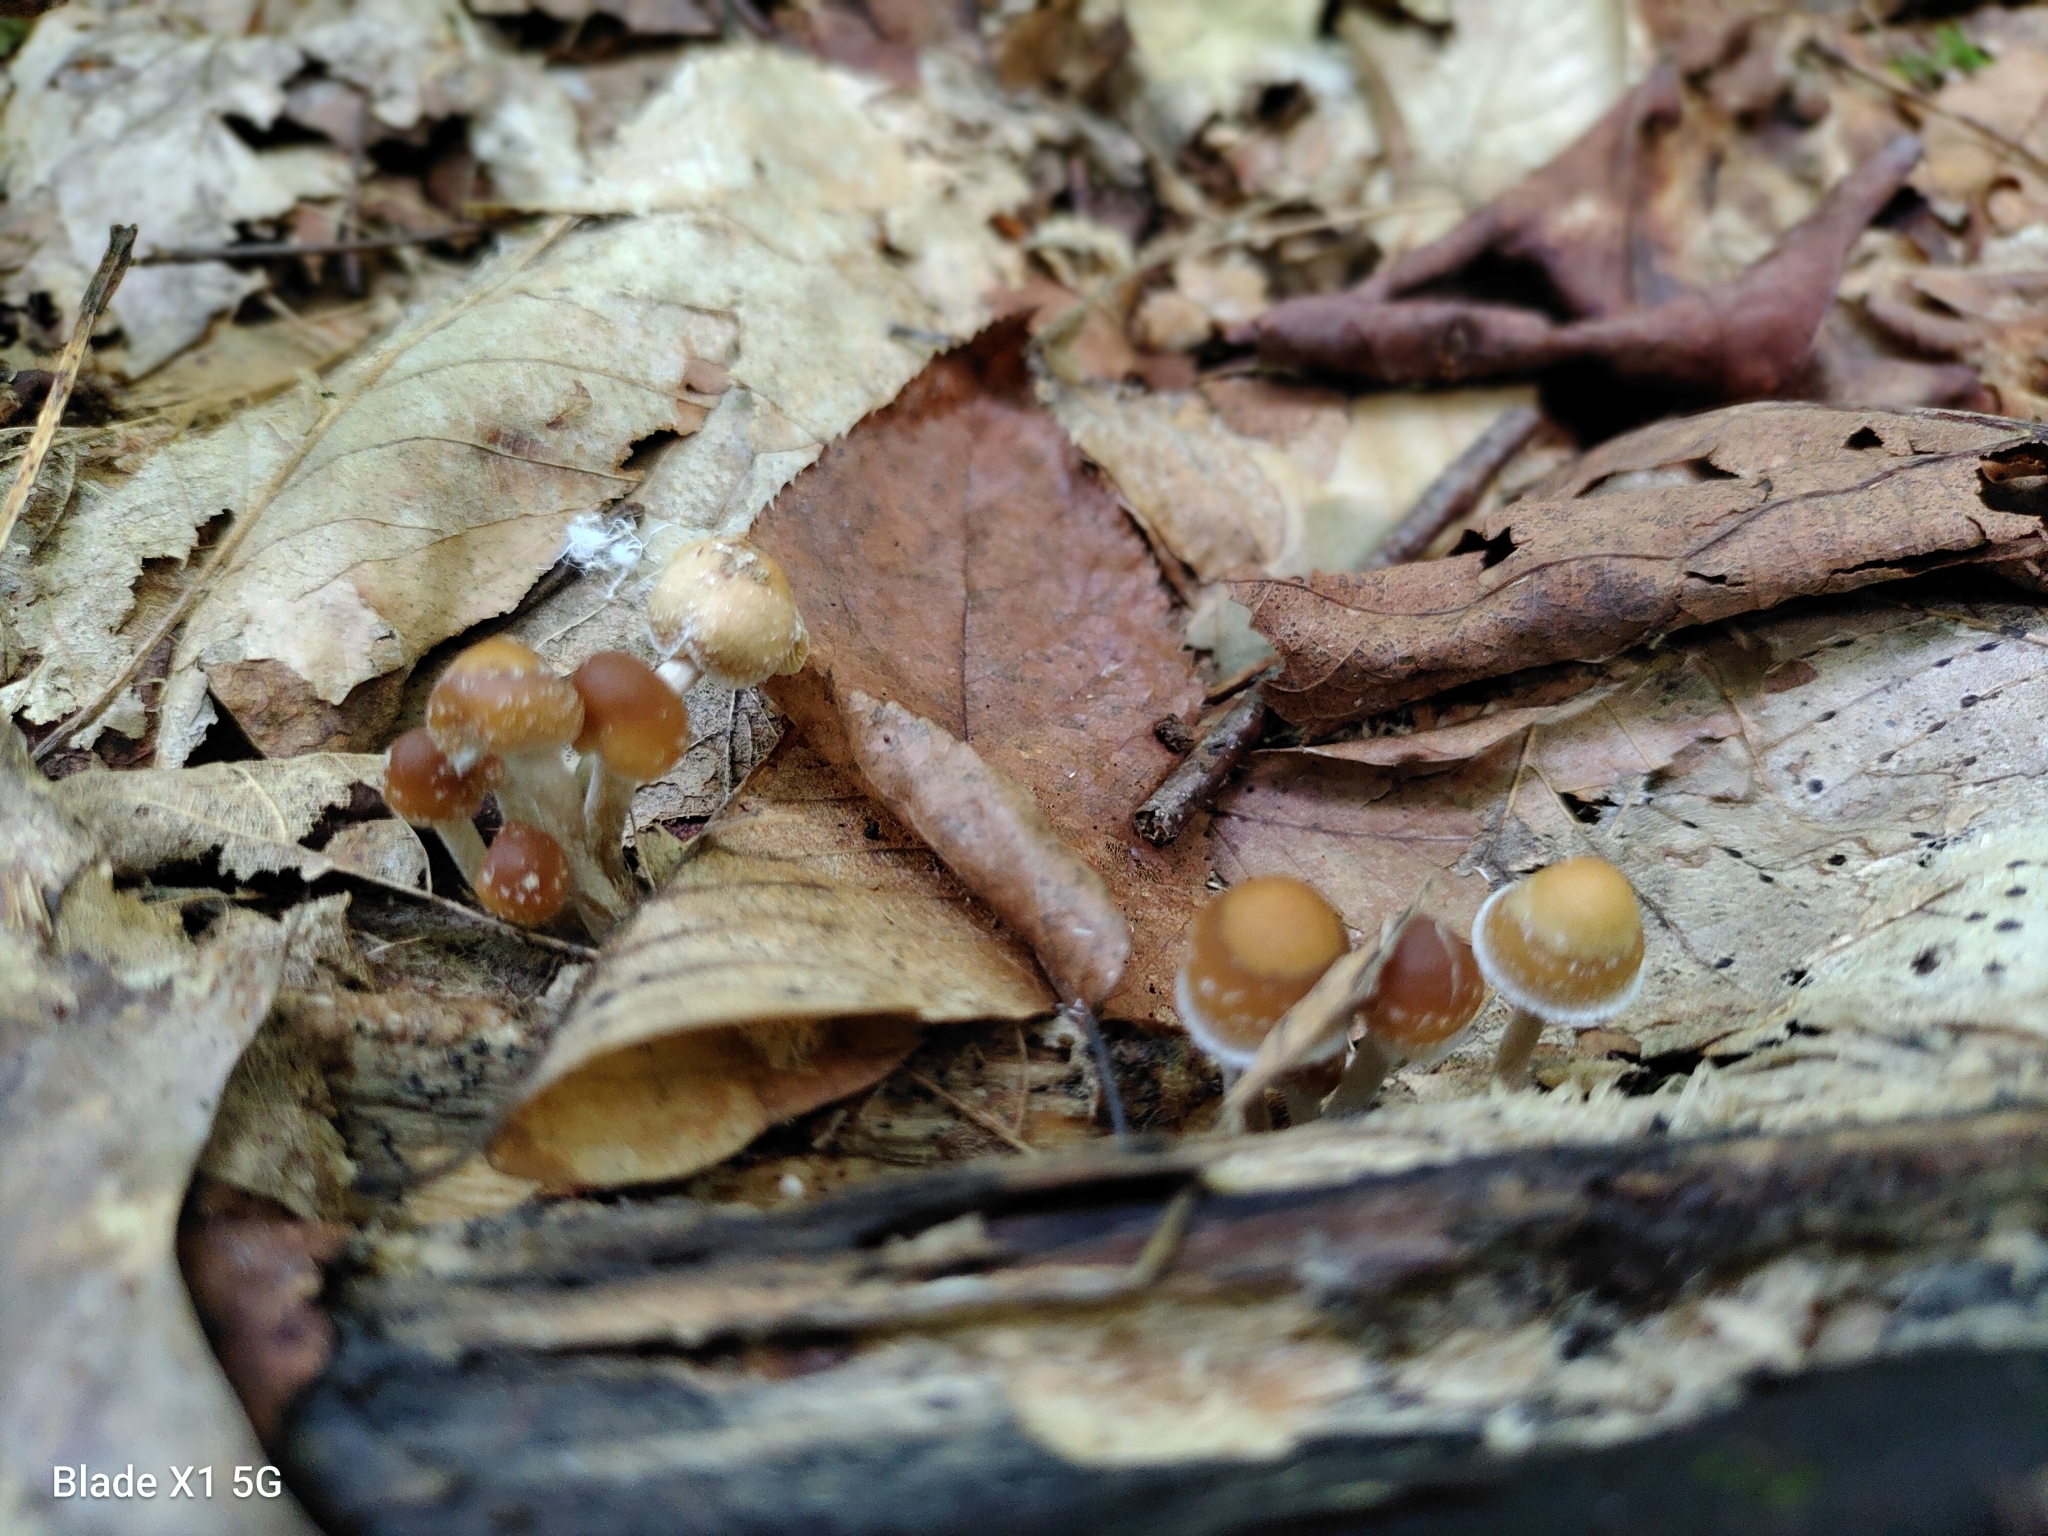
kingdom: Fungi
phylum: Basidiomycota
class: Agaricomycetes
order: Agaricales
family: Hymenogastraceae
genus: Psilocybe
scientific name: Psilocybe caerulipes
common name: Blue-foot
